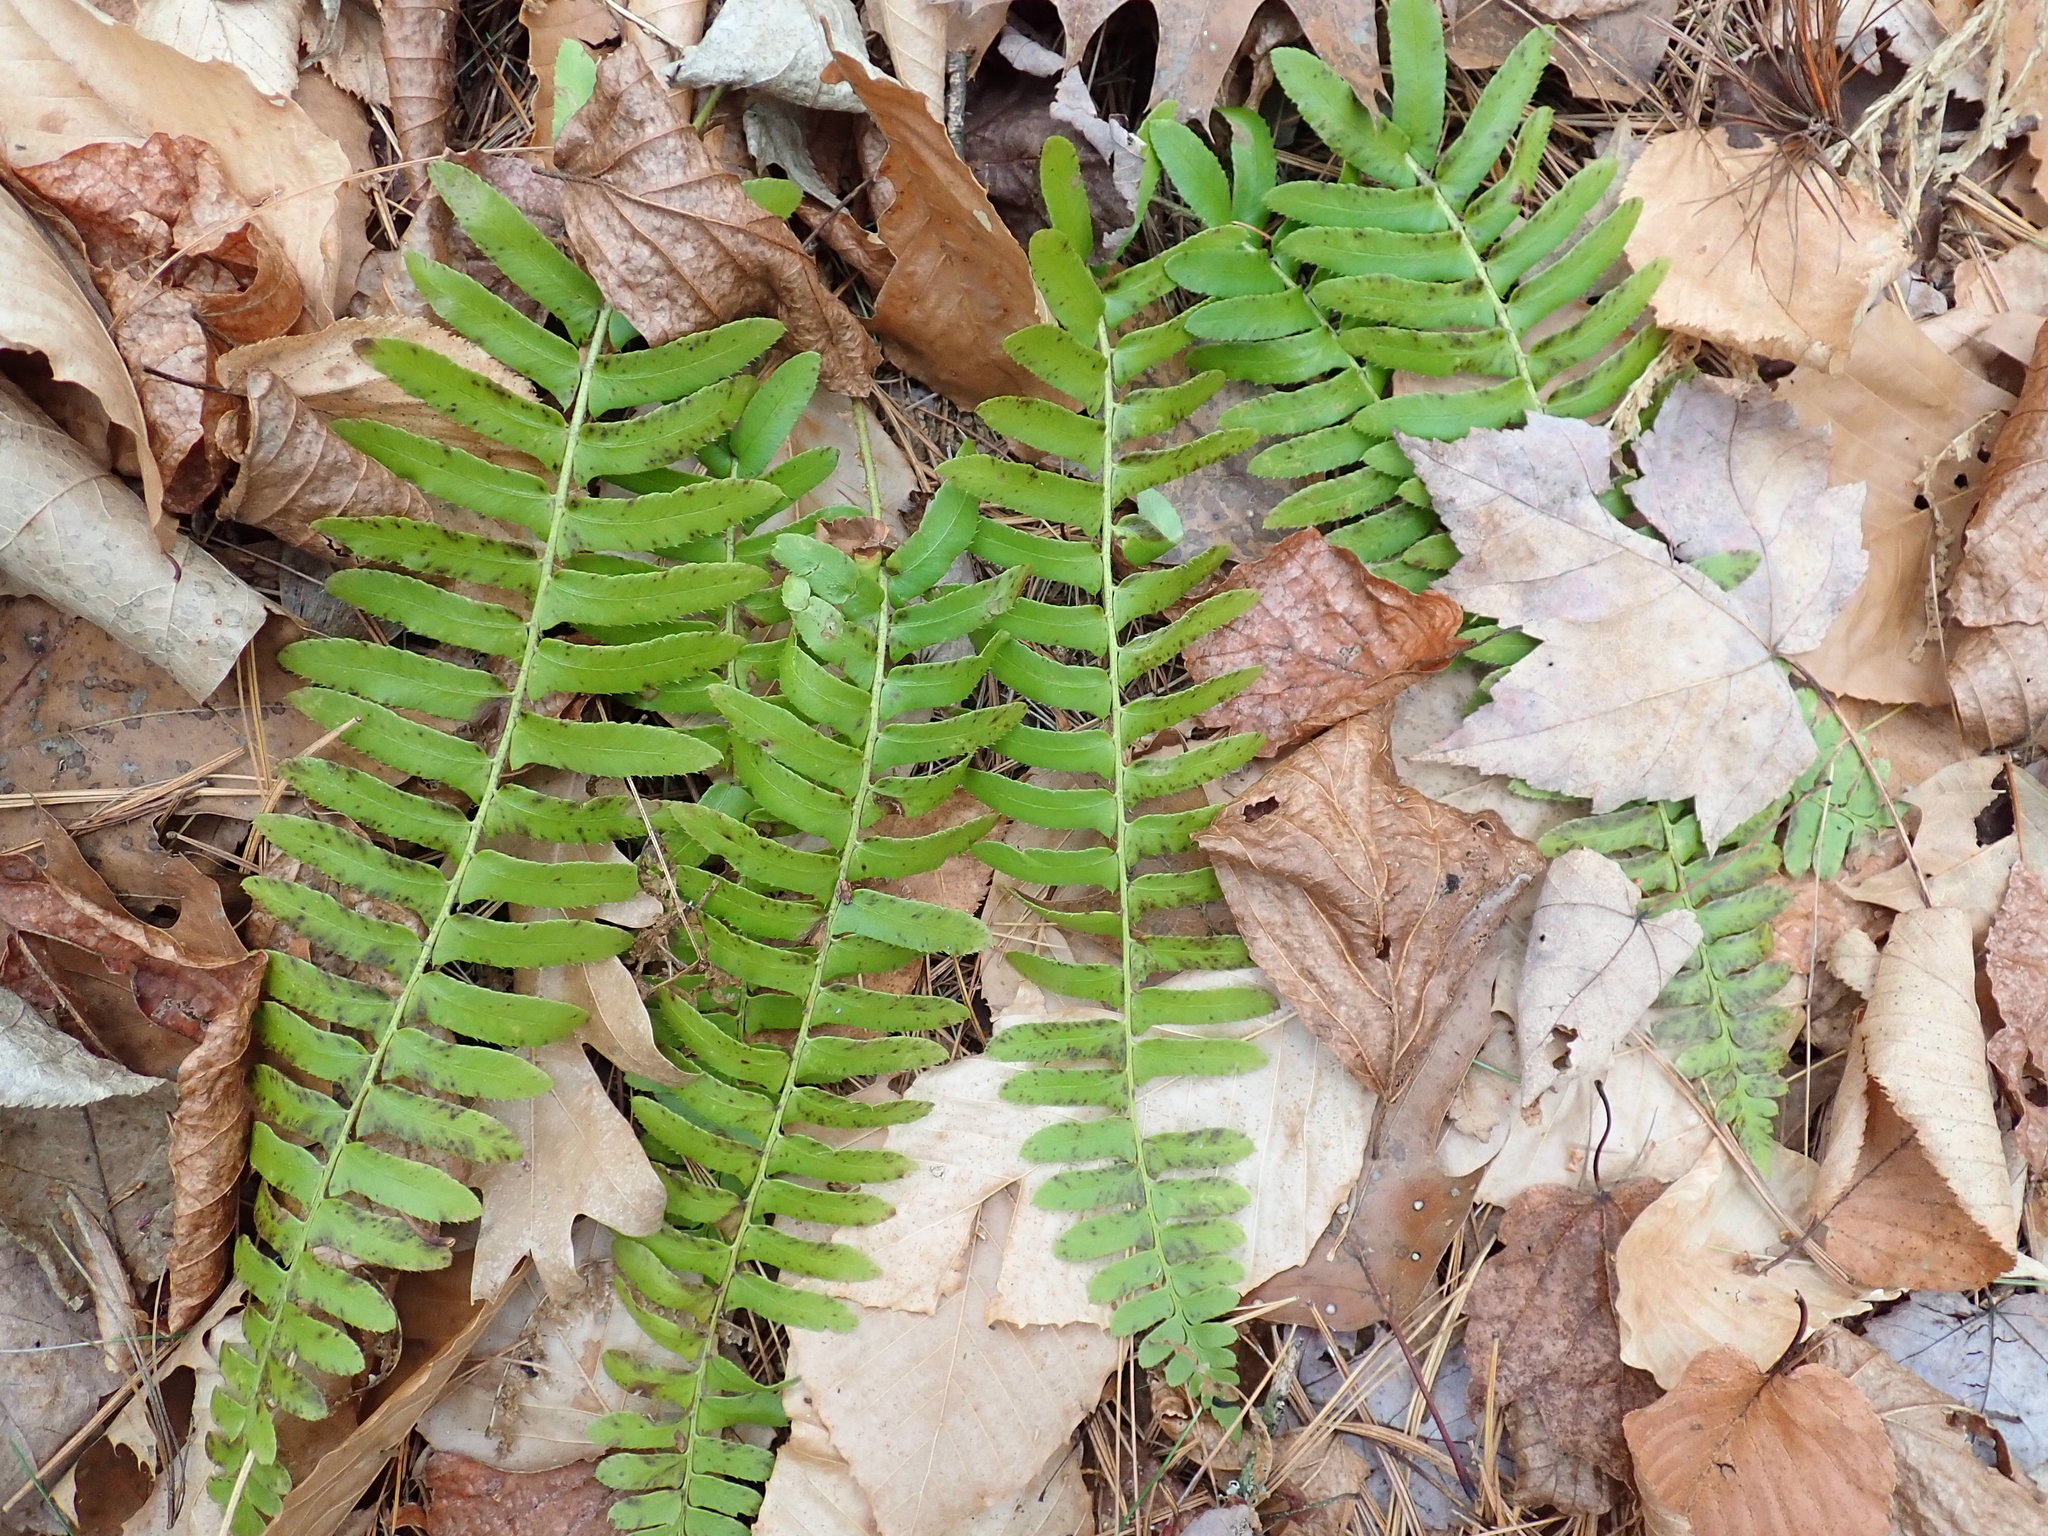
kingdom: Plantae
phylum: Tracheophyta
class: Polypodiopsida
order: Polypodiales
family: Dryopteridaceae
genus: Polystichum
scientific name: Polystichum acrostichoides
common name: Christmas fern
